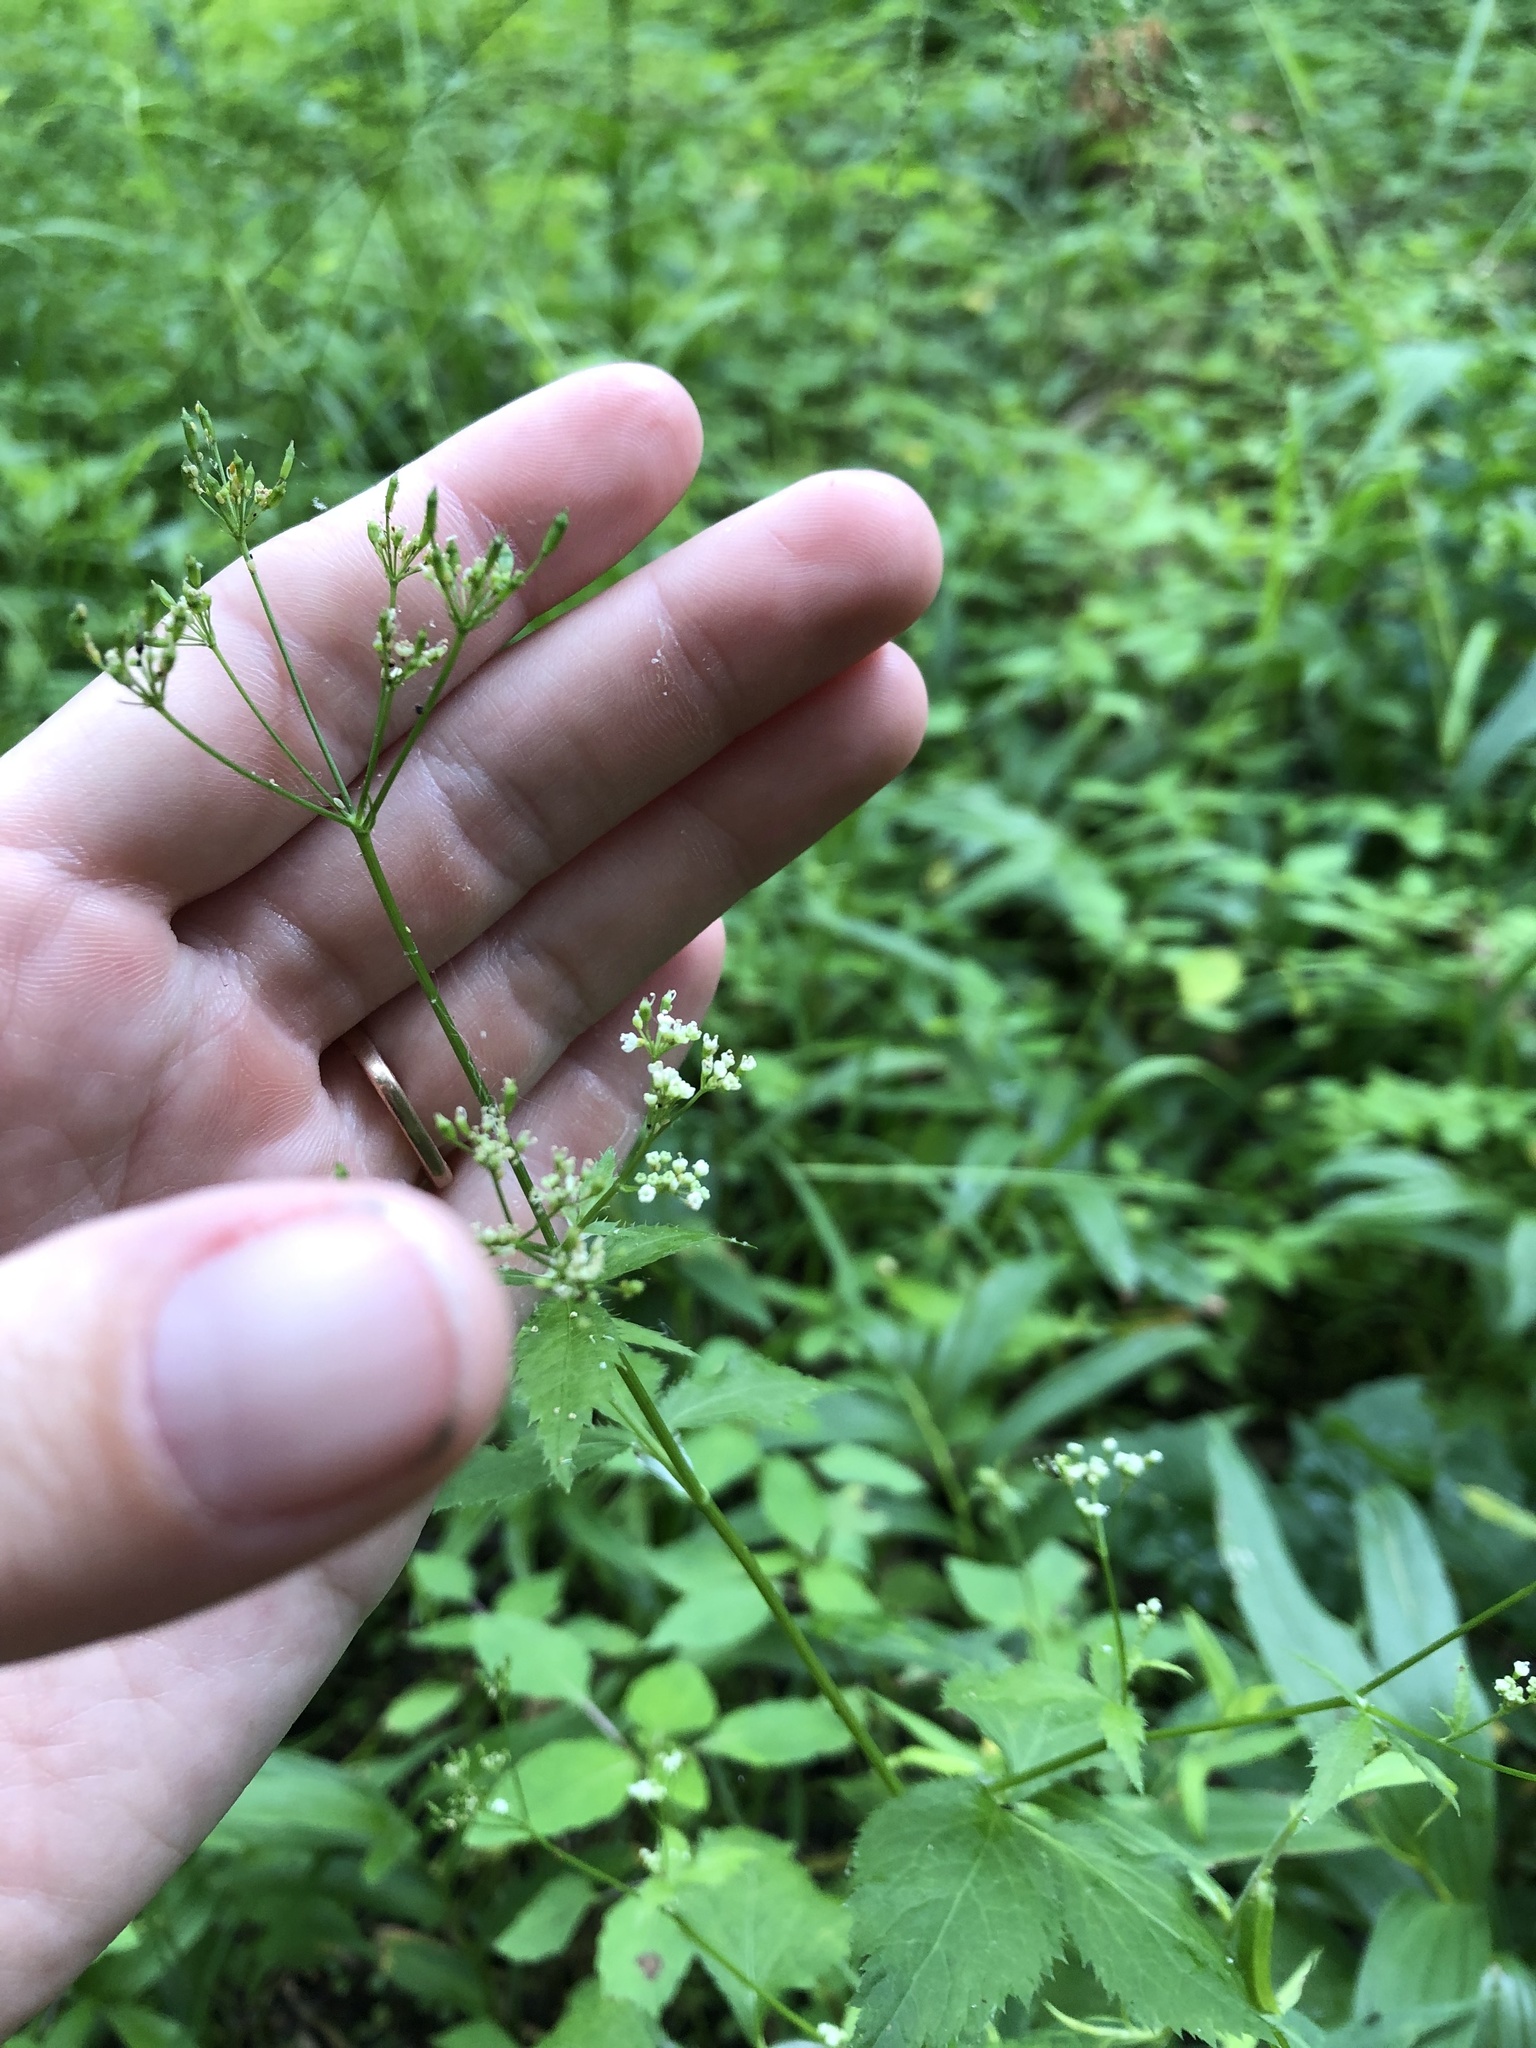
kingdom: Plantae
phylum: Tracheophyta
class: Magnoliopsida
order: Apiales
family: Apiaceae
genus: Cryptotaenia
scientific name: Cryptotaenia canadensis
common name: Honewort
